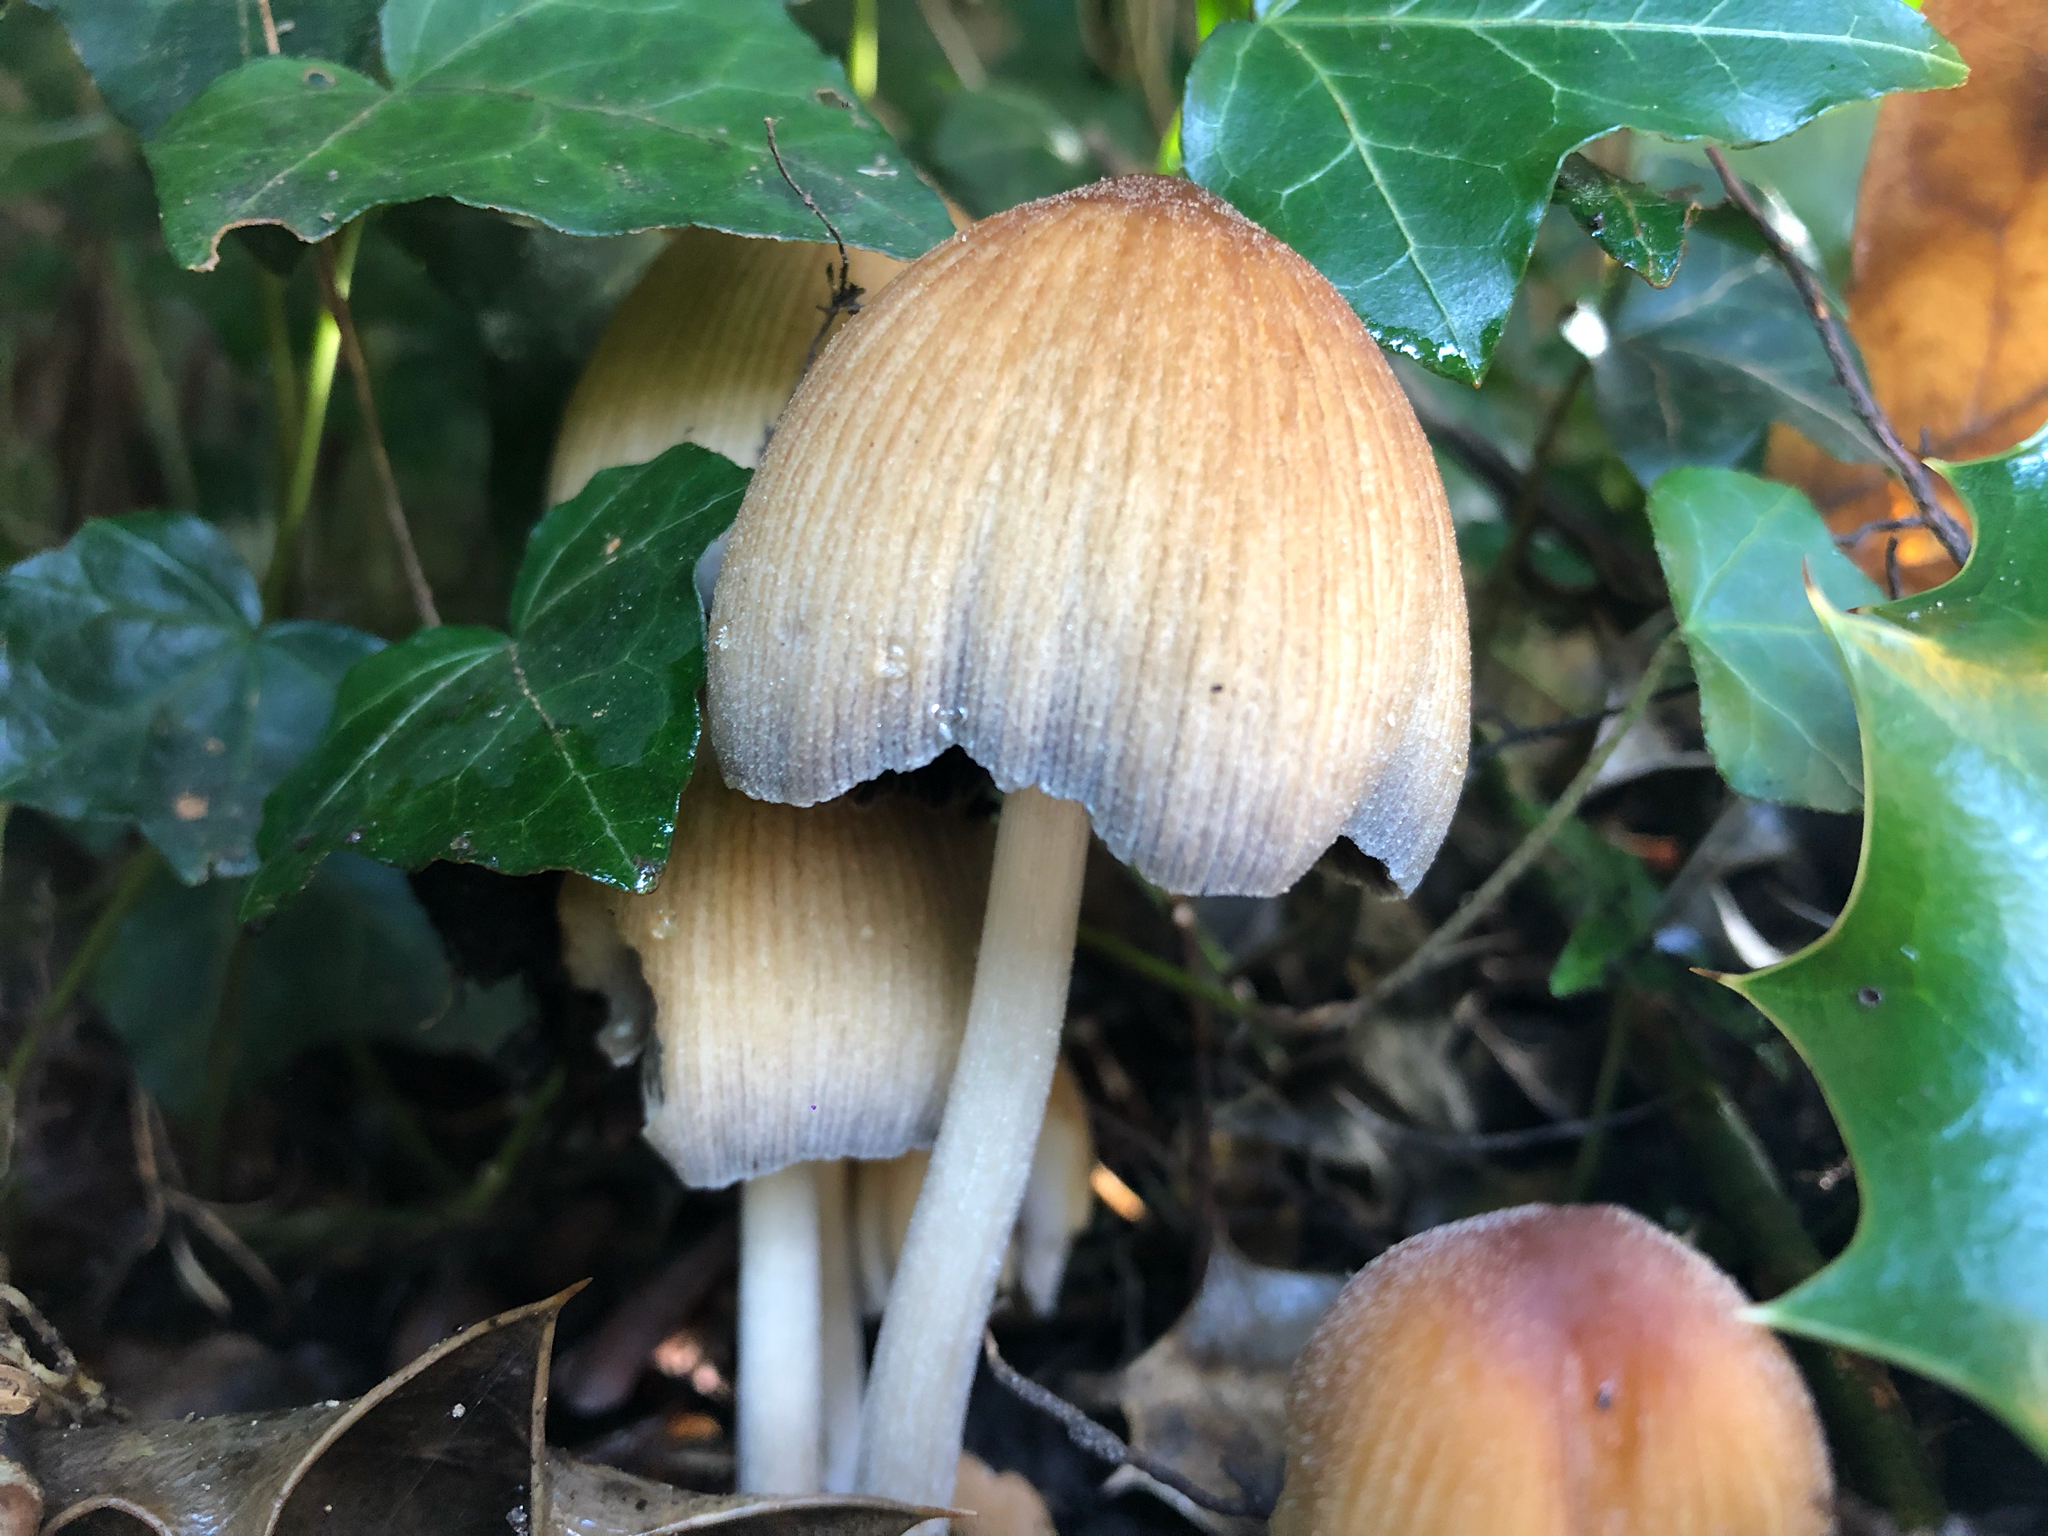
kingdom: Fungi
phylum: Basidiomycota
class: Agaricomycetes
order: Agaricales
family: Psathyrellaceae
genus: Coprinellus
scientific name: Coprinellus micaceus
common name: Glistening ink-cap
